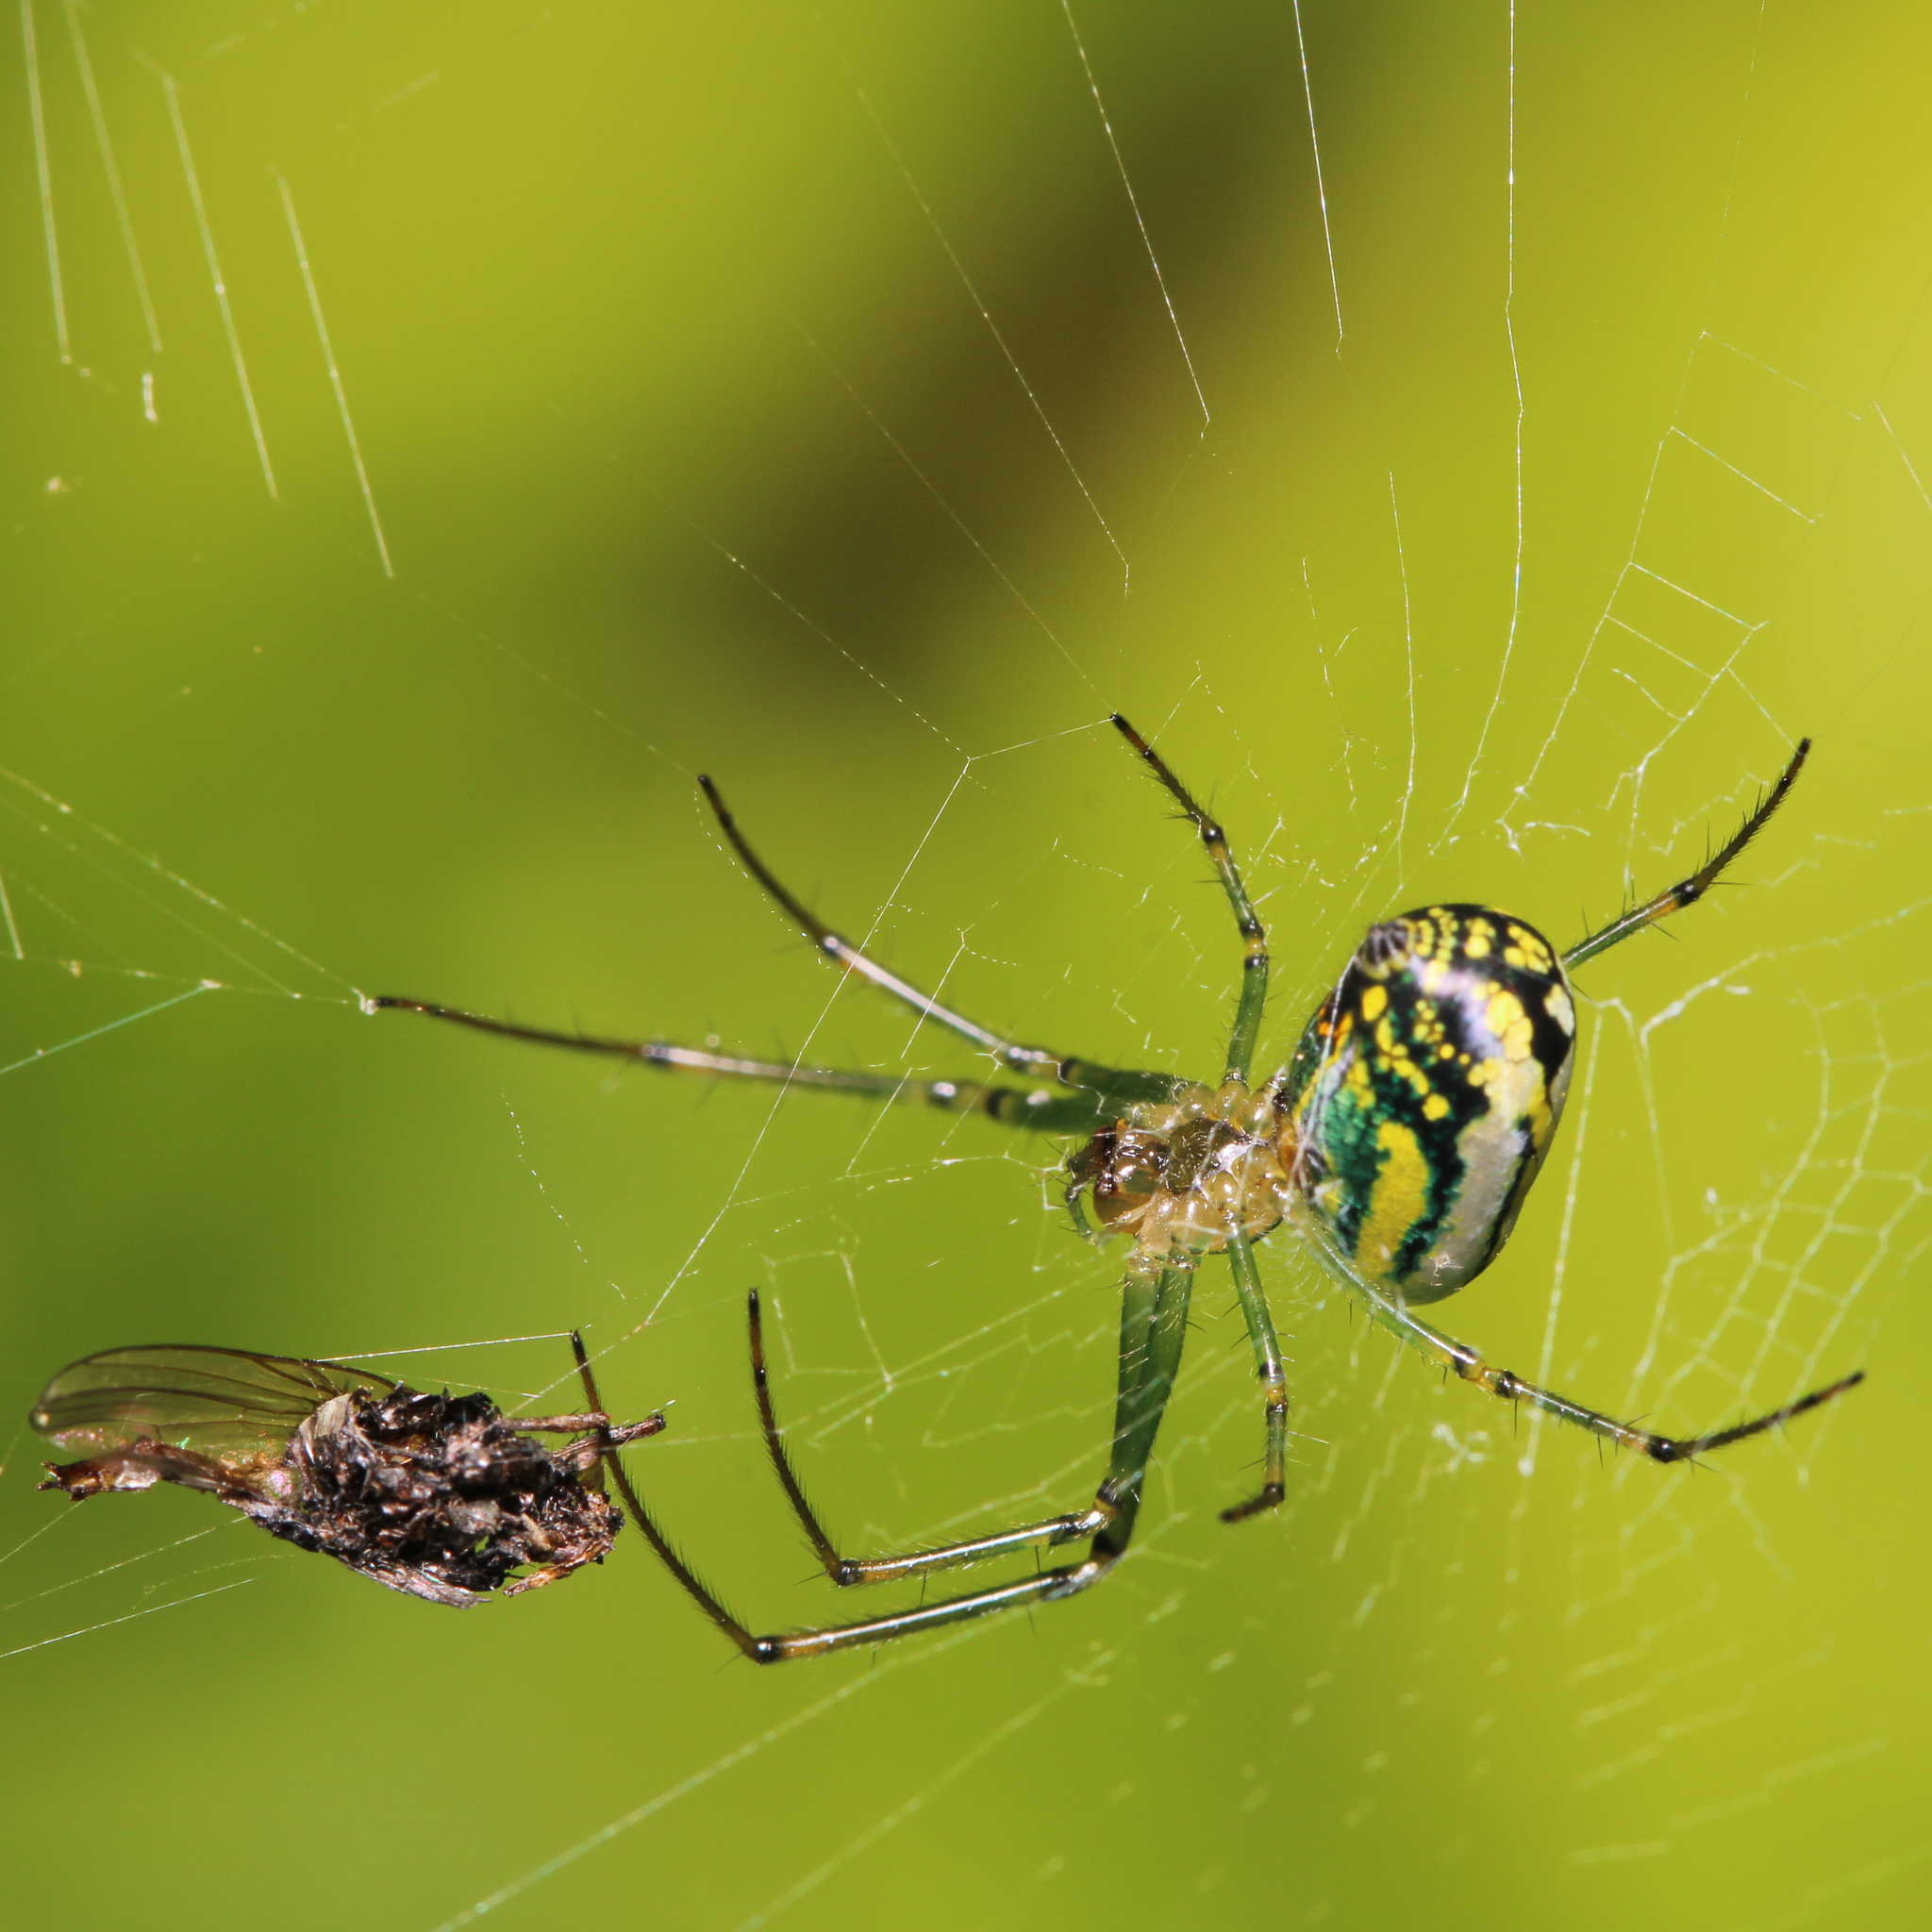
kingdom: Animalia
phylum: Arthropoda
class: Arachnida
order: Araneae
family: Tetragnathidae
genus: Leucauge
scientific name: Leucauge venusta
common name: Longjawed orb weavers
